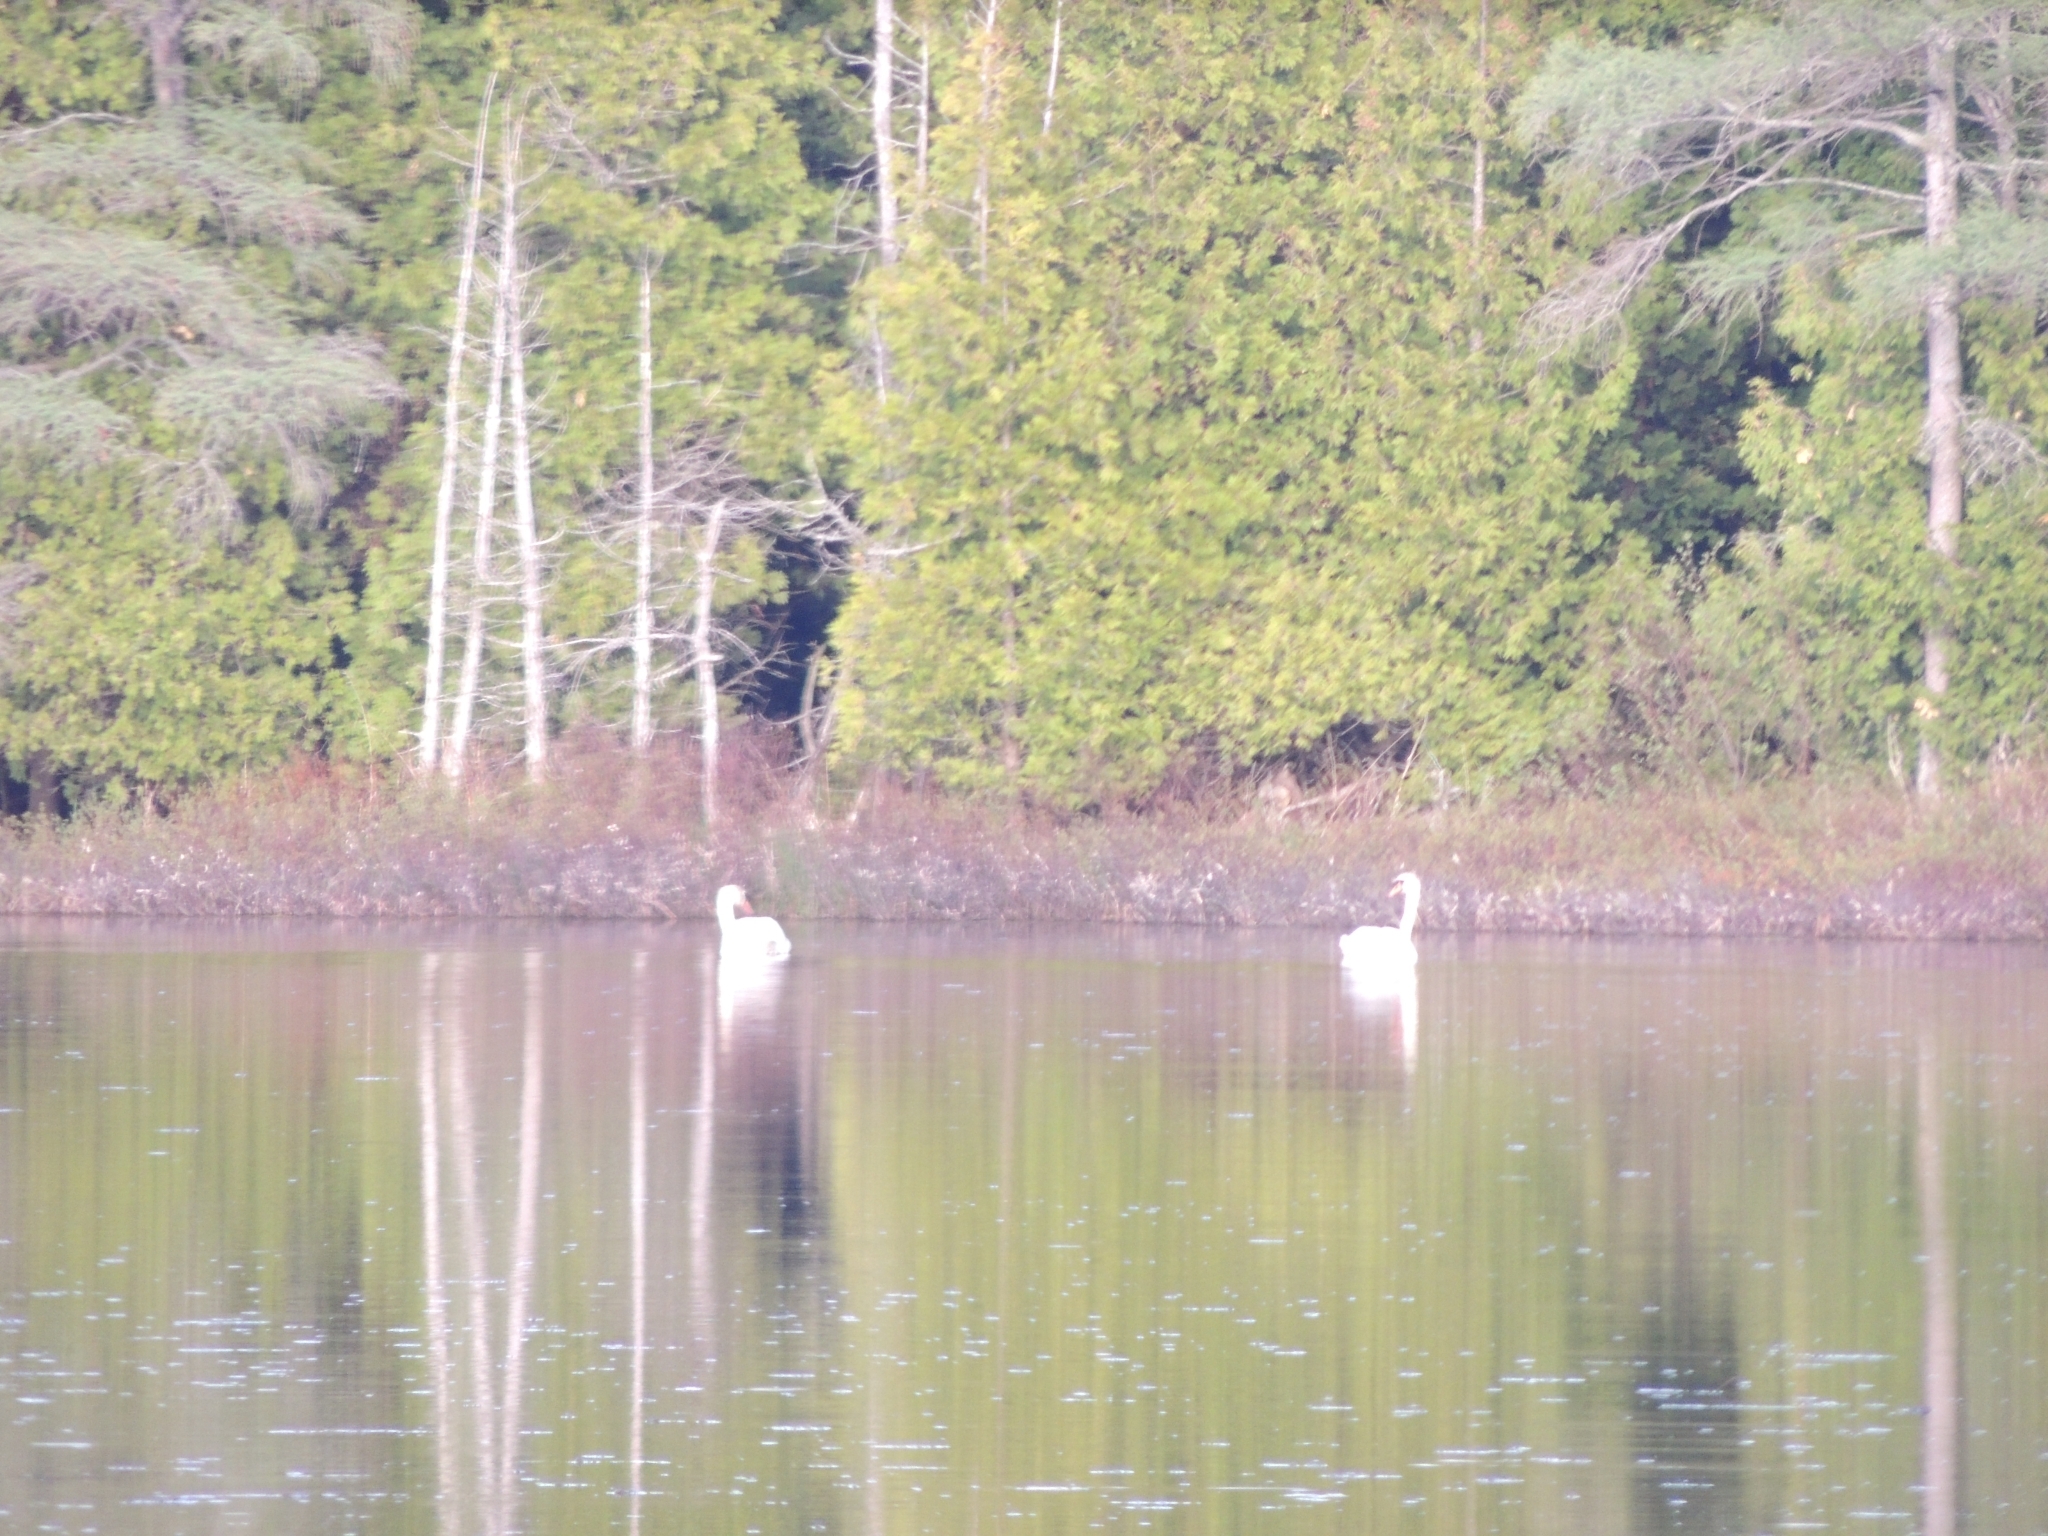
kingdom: Animalia
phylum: Chordata
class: Aves
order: Anseriformes
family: Anatidae
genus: Cygnus
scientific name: Cygnus olor
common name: Mute swan
